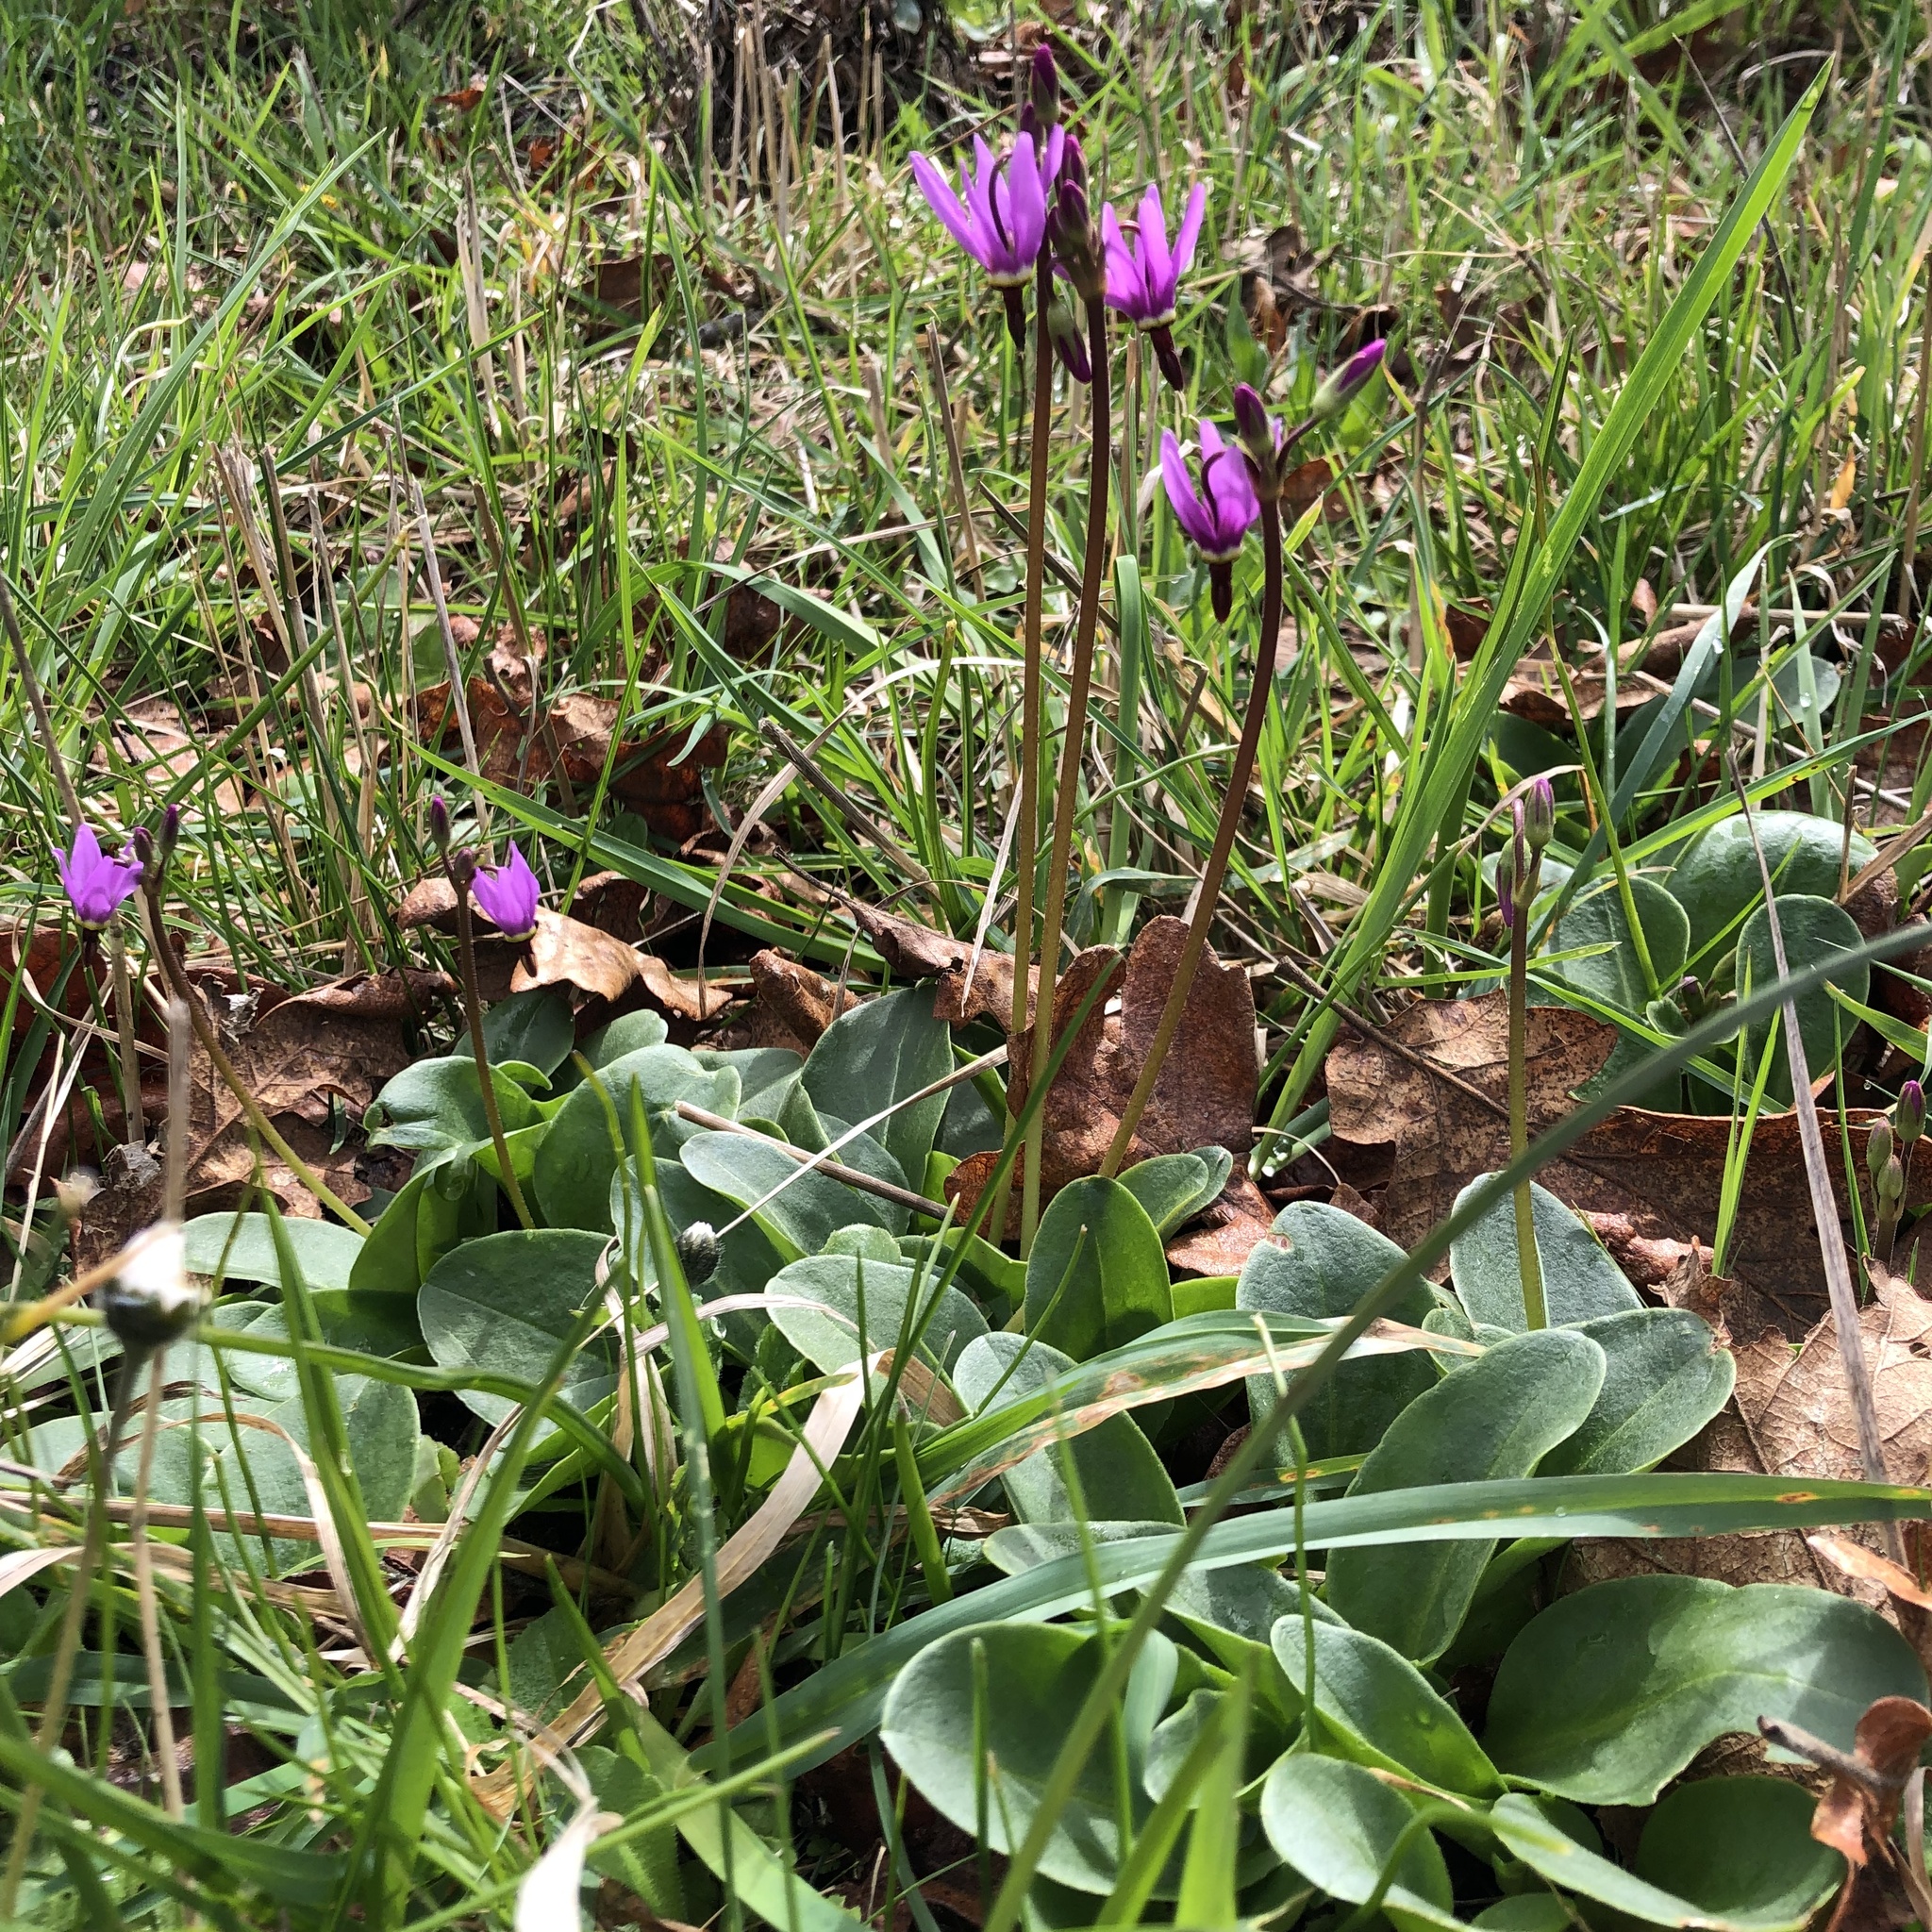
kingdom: Plantae
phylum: Tracheophyta
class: Magnoliopsida
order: Ericales
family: Primulaceae
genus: Dodecatheon
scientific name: Dodecatheon hendersonii
